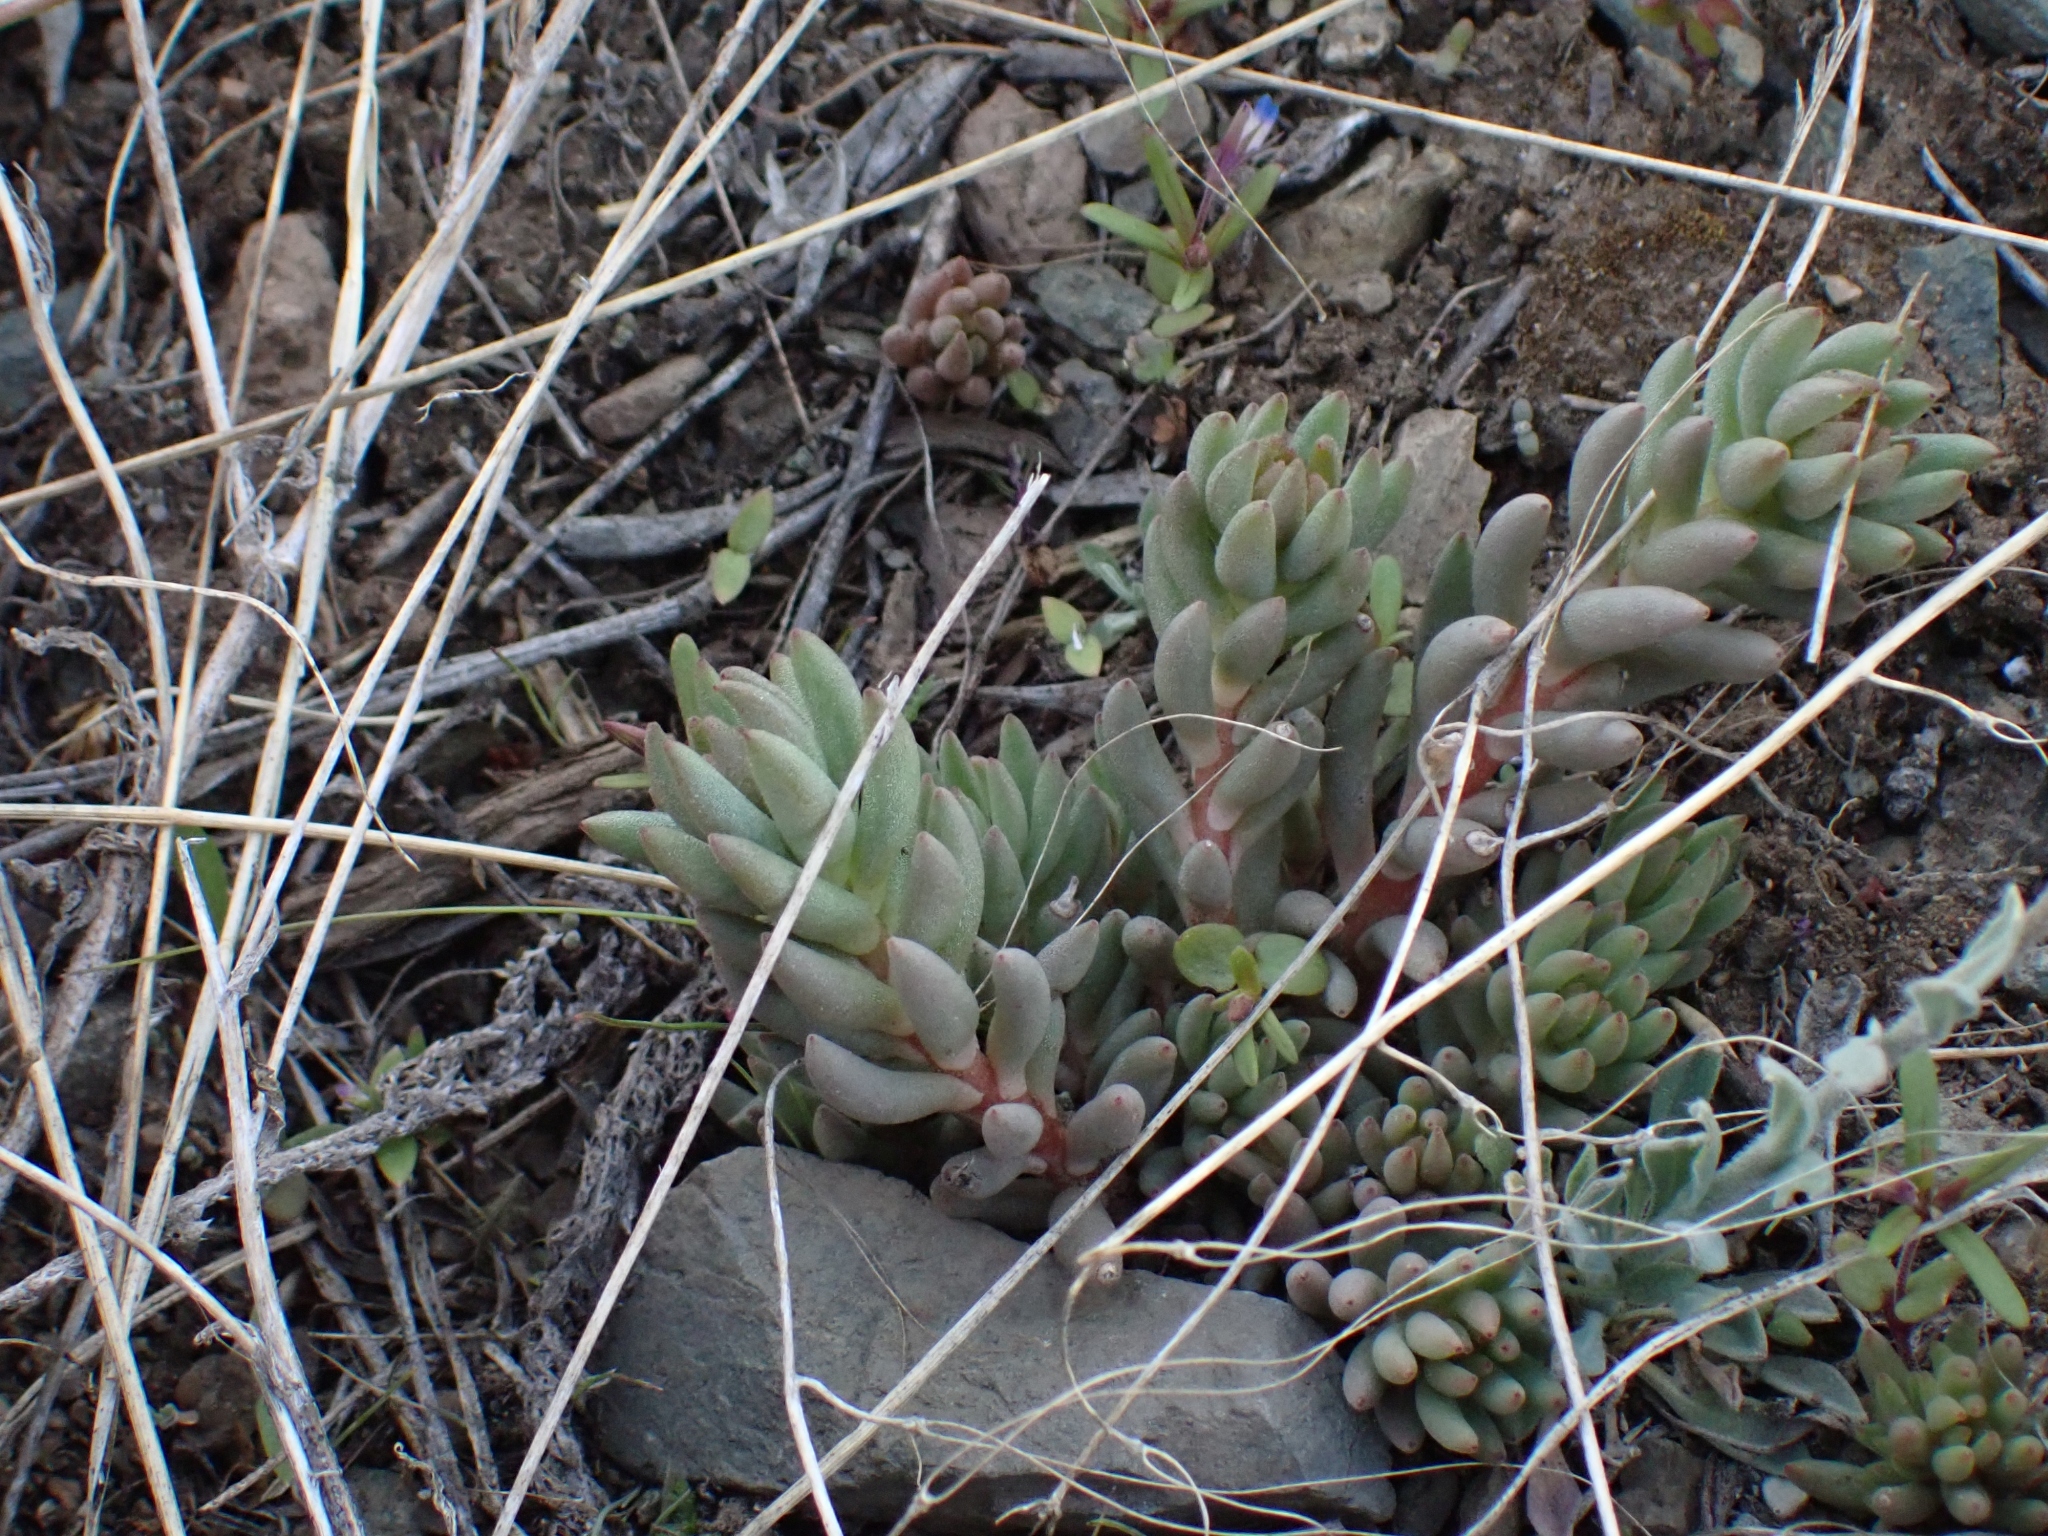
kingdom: Plantae
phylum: Tracheophyta
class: Magnoliopsida
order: Saxifragales
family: Crassulaceae
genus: Sedum
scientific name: Sedum lanceolatum
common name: Common stonecrop
